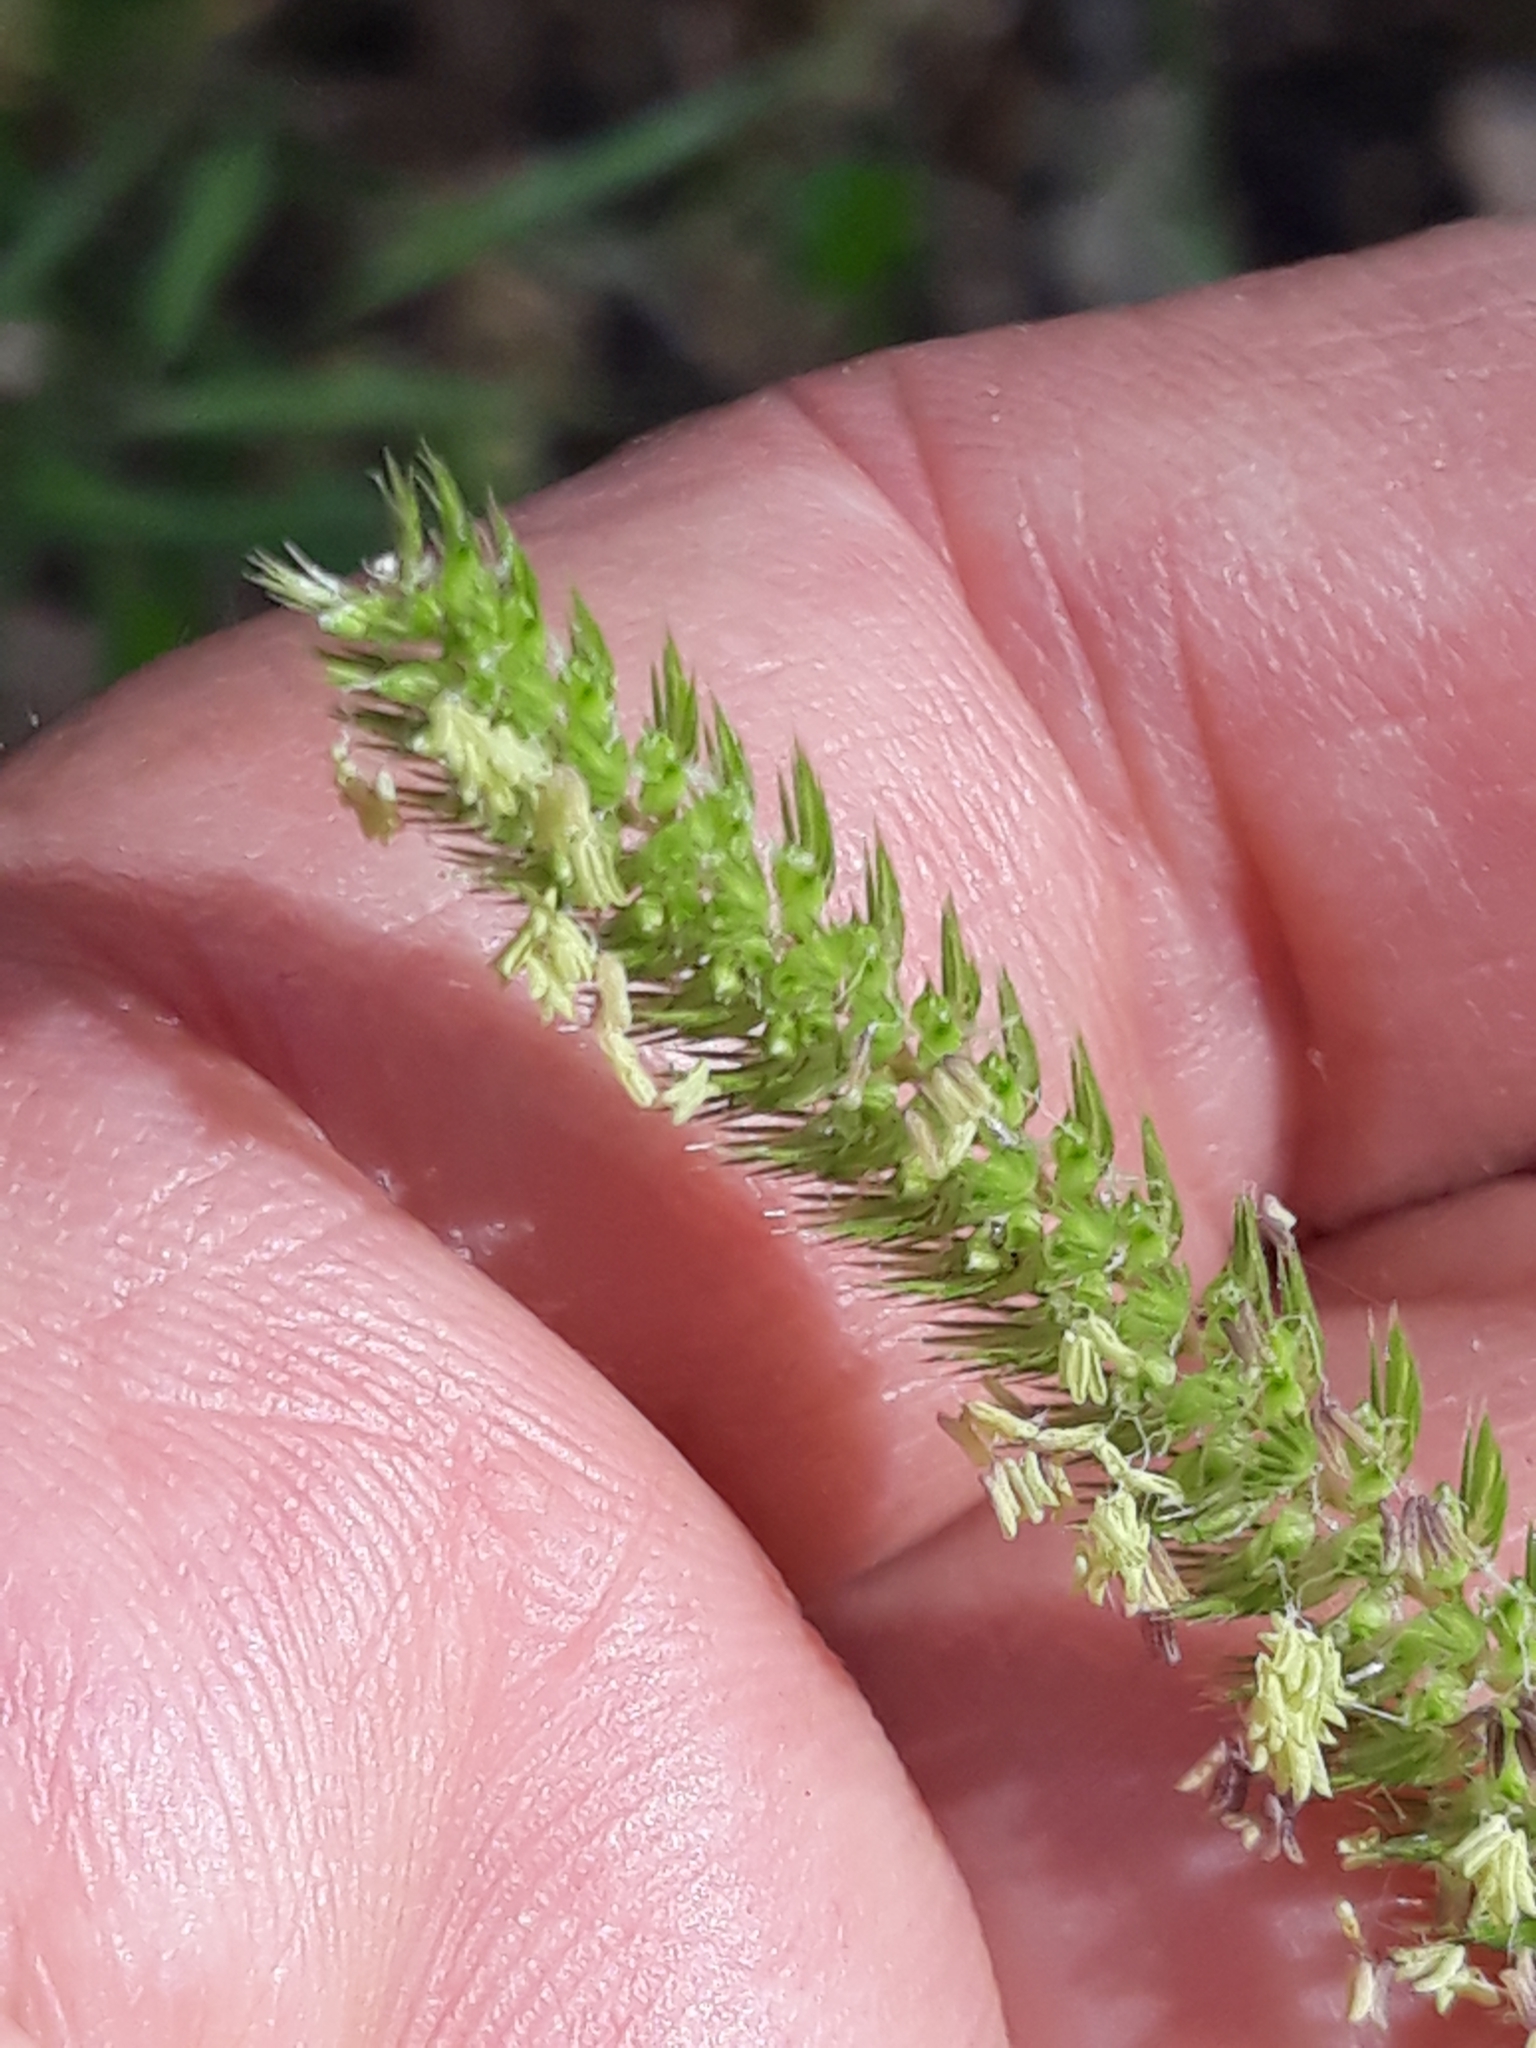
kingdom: Plantae
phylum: Tracheophyta
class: Liliopsida
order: Poales
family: Poaceae
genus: Cynosurus
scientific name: Cynosurus polybracteatus
